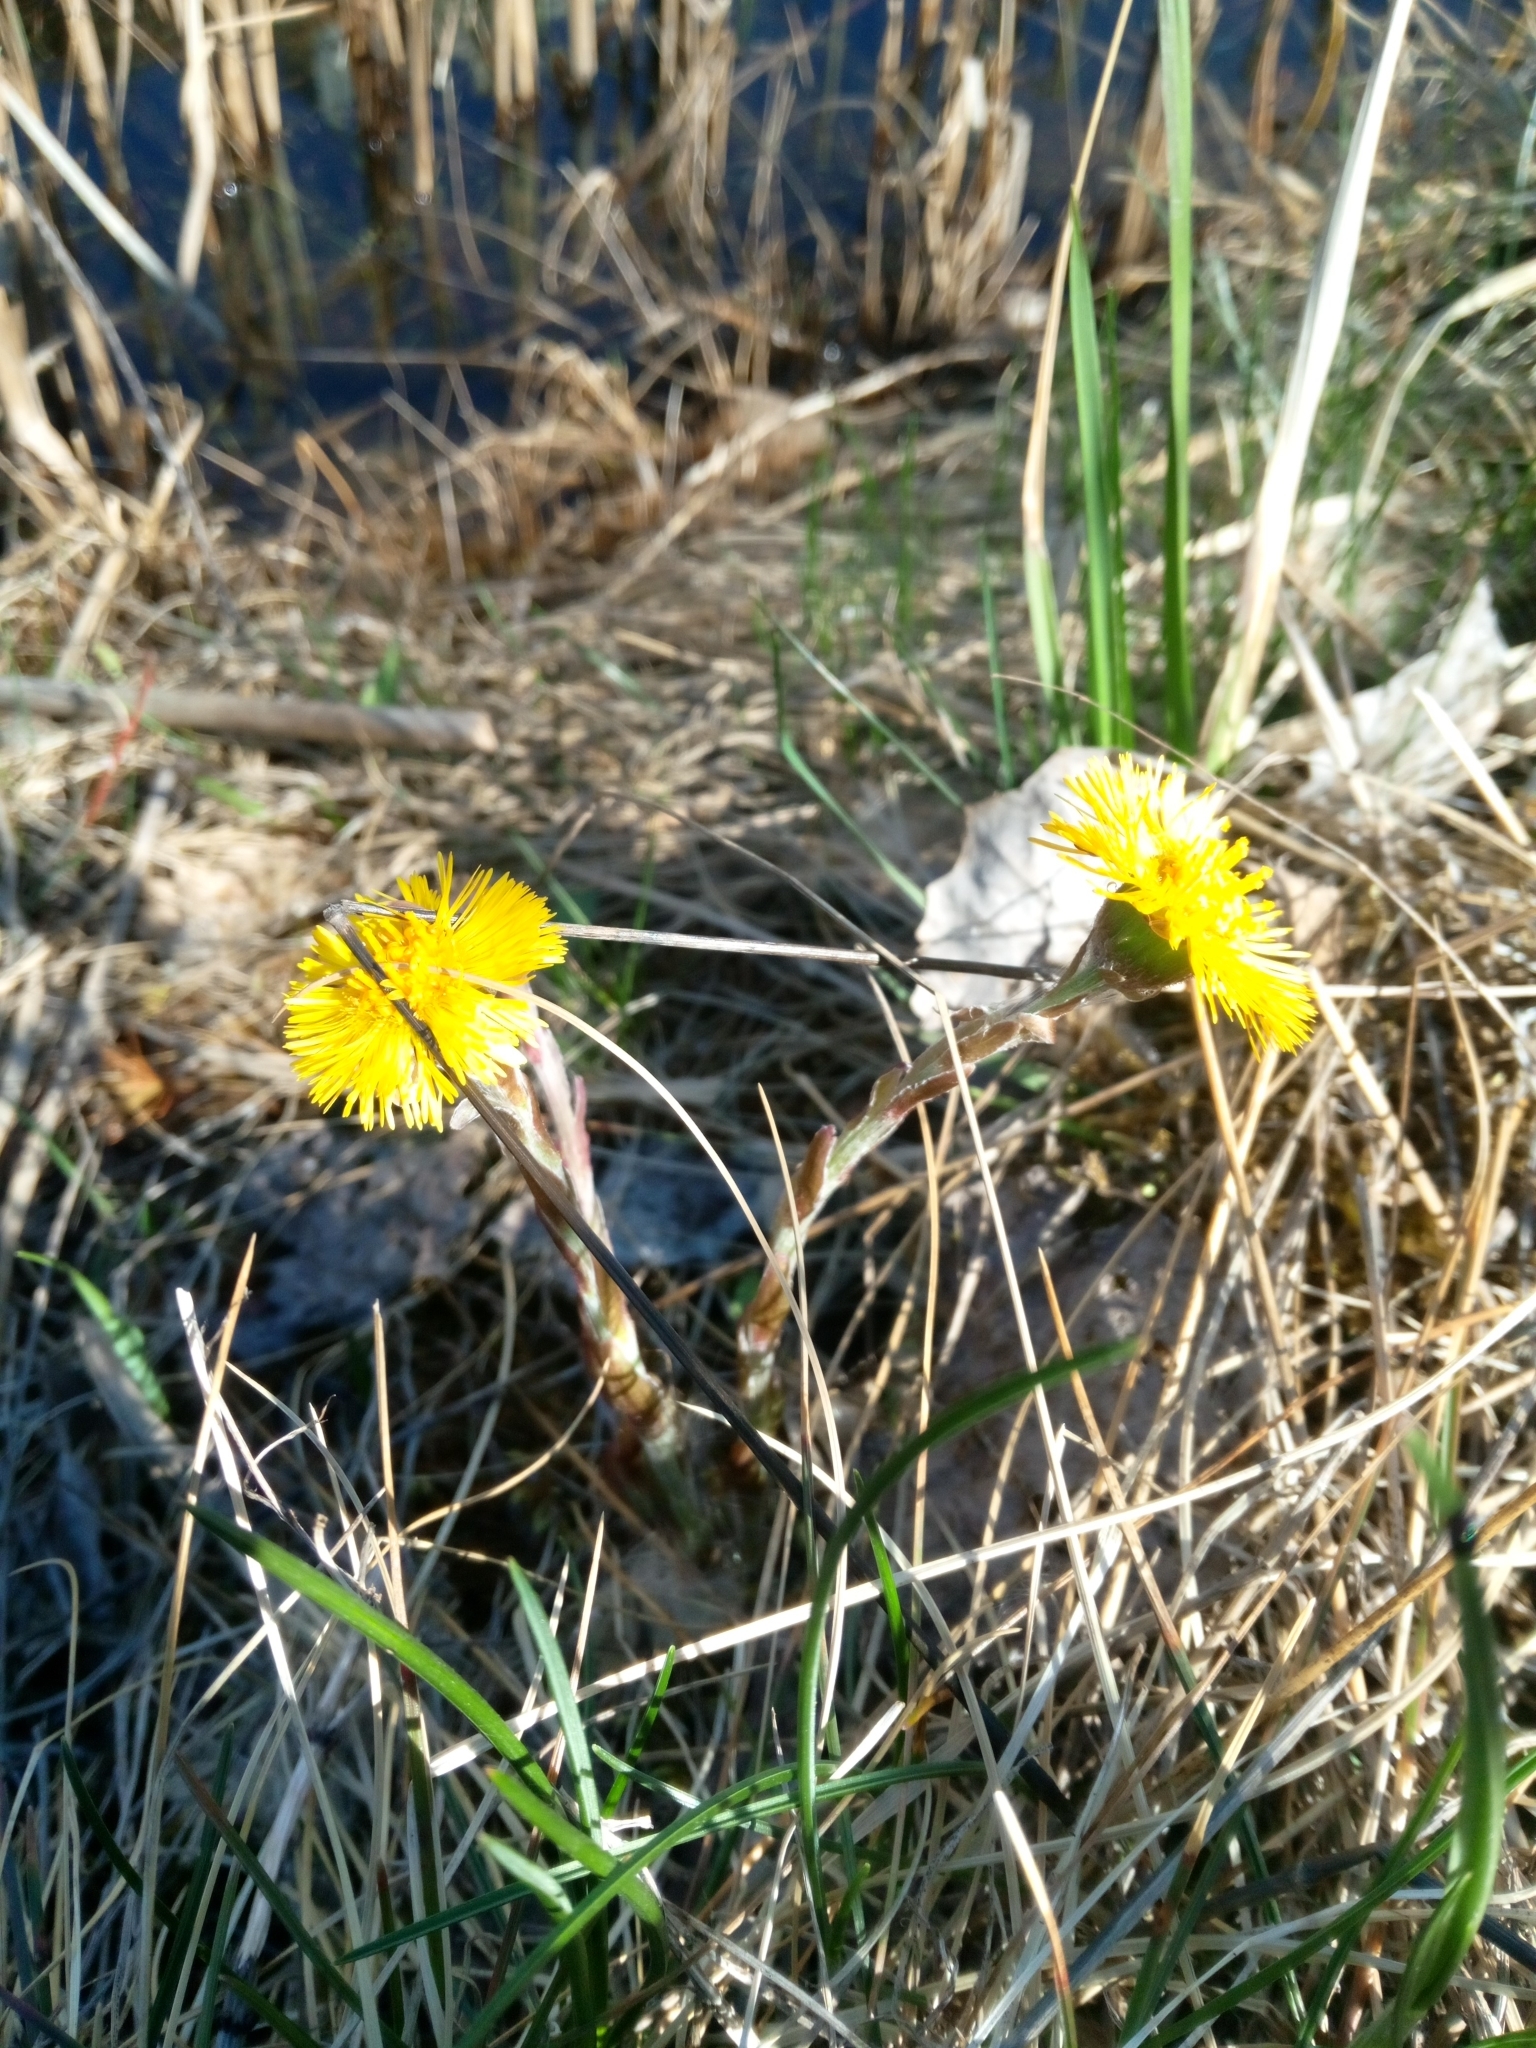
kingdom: Plantae
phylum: Tracheophyta
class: Magnoliopsida
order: Asterales
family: Asteraceae
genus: Tussilago
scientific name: Tussilago farfara
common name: Coltsfoot
